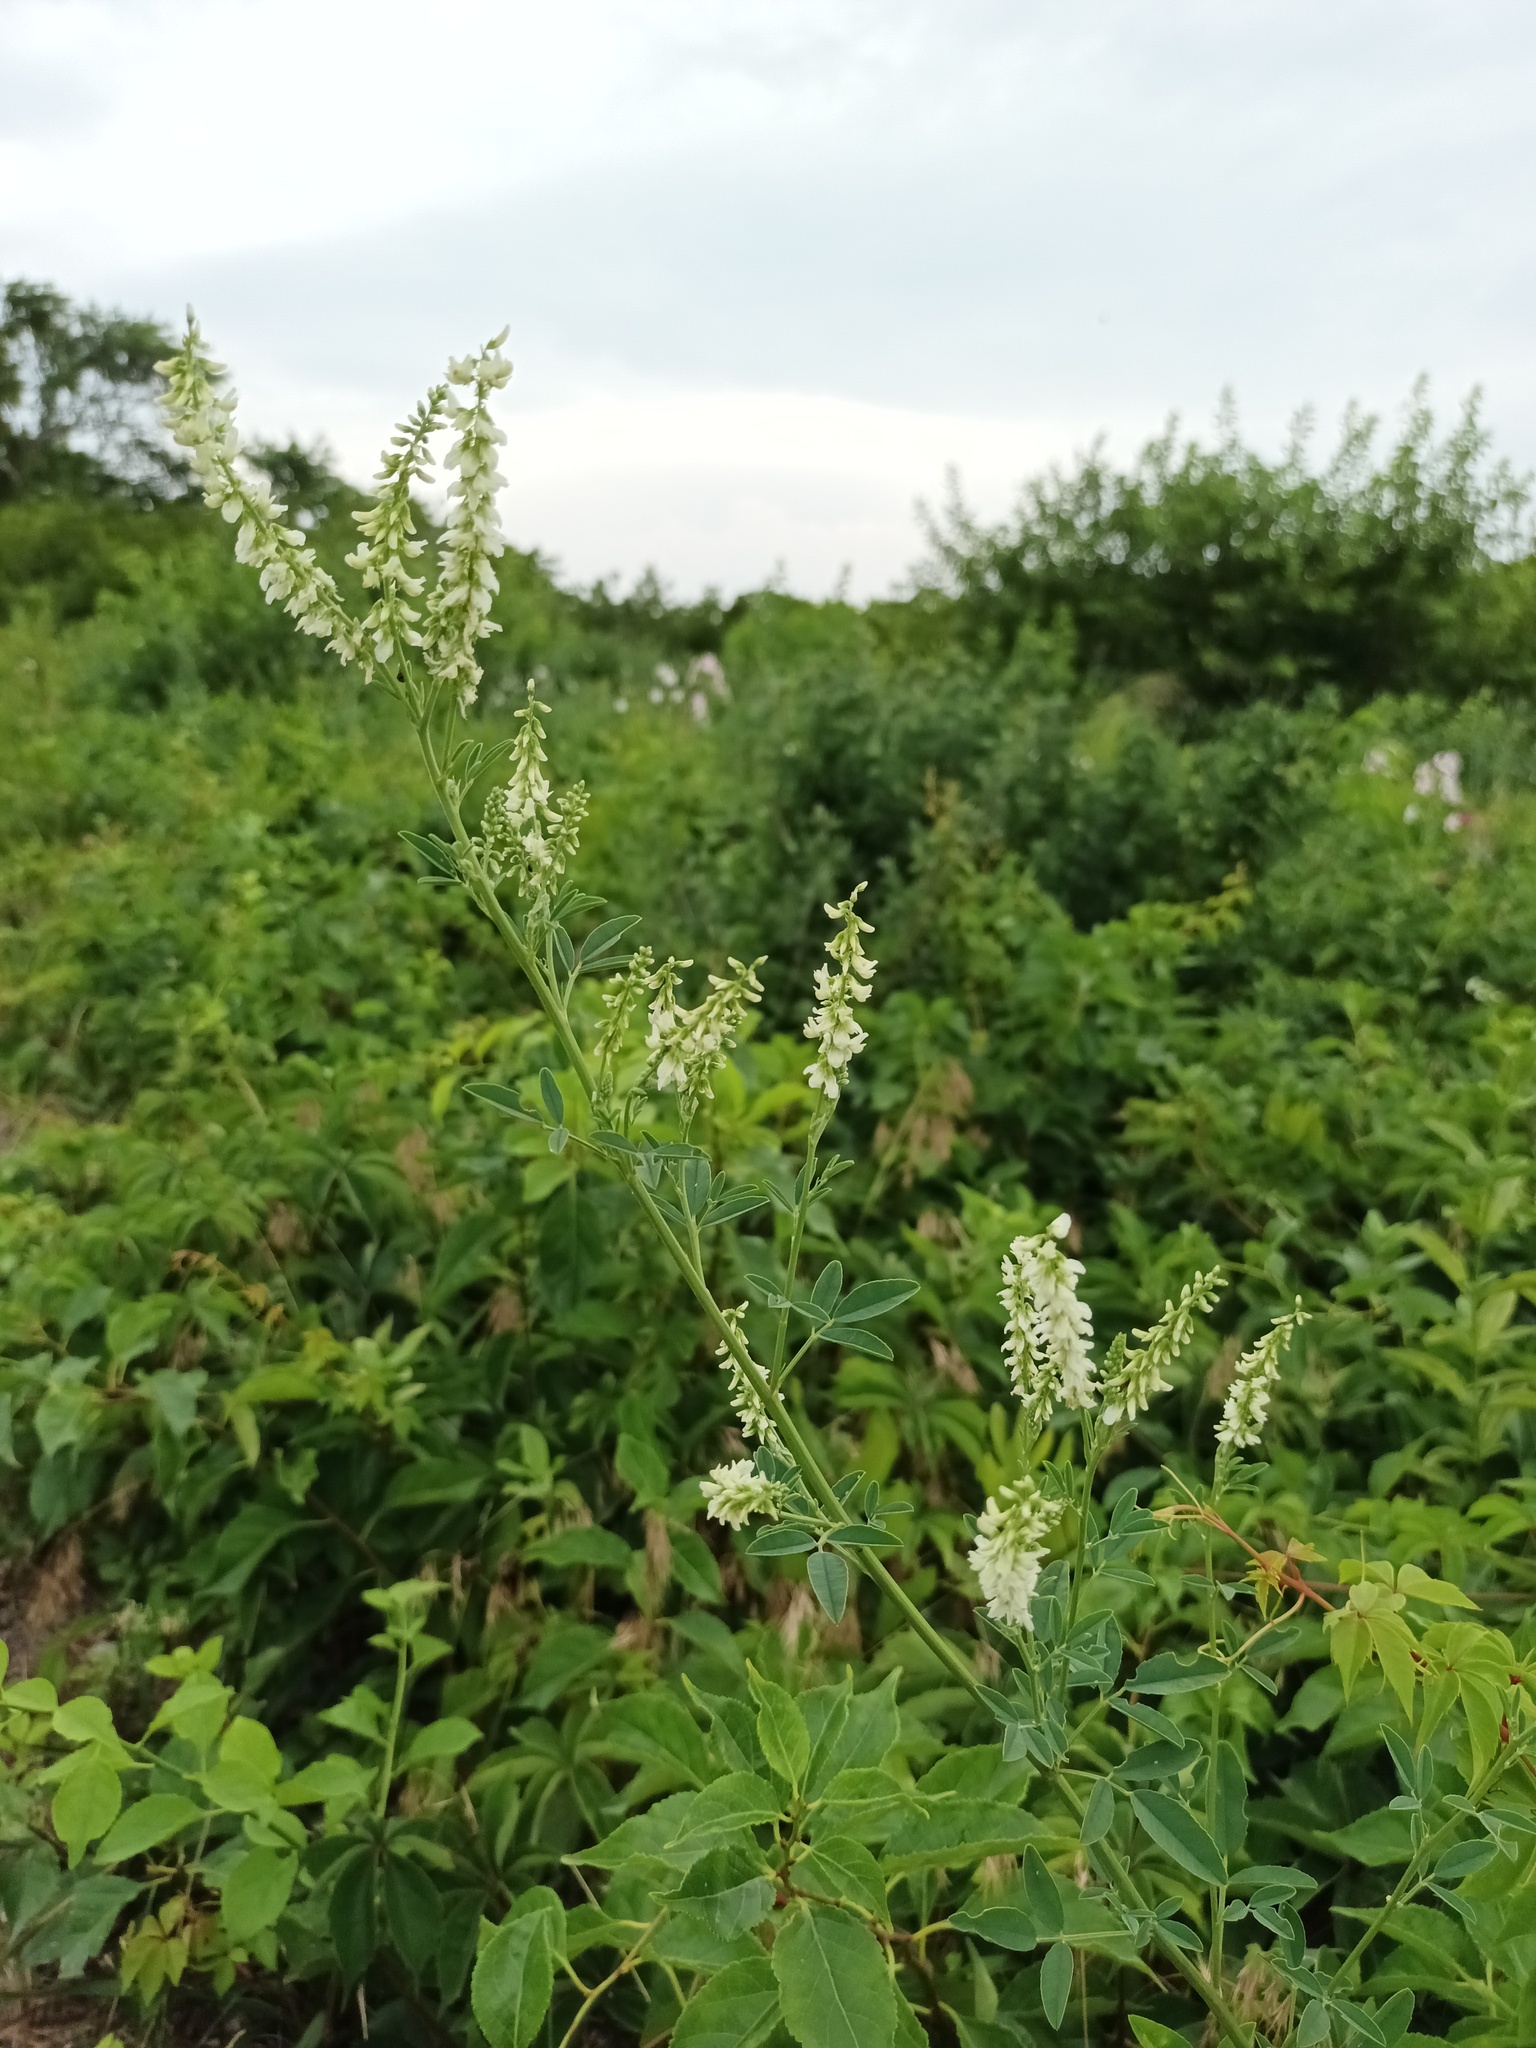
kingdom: Plantae
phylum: Tracheophyta
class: Magnoliopsida
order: Fabales
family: Fabaceae
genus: Melilotus
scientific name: Melilotus albus
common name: White melilot
